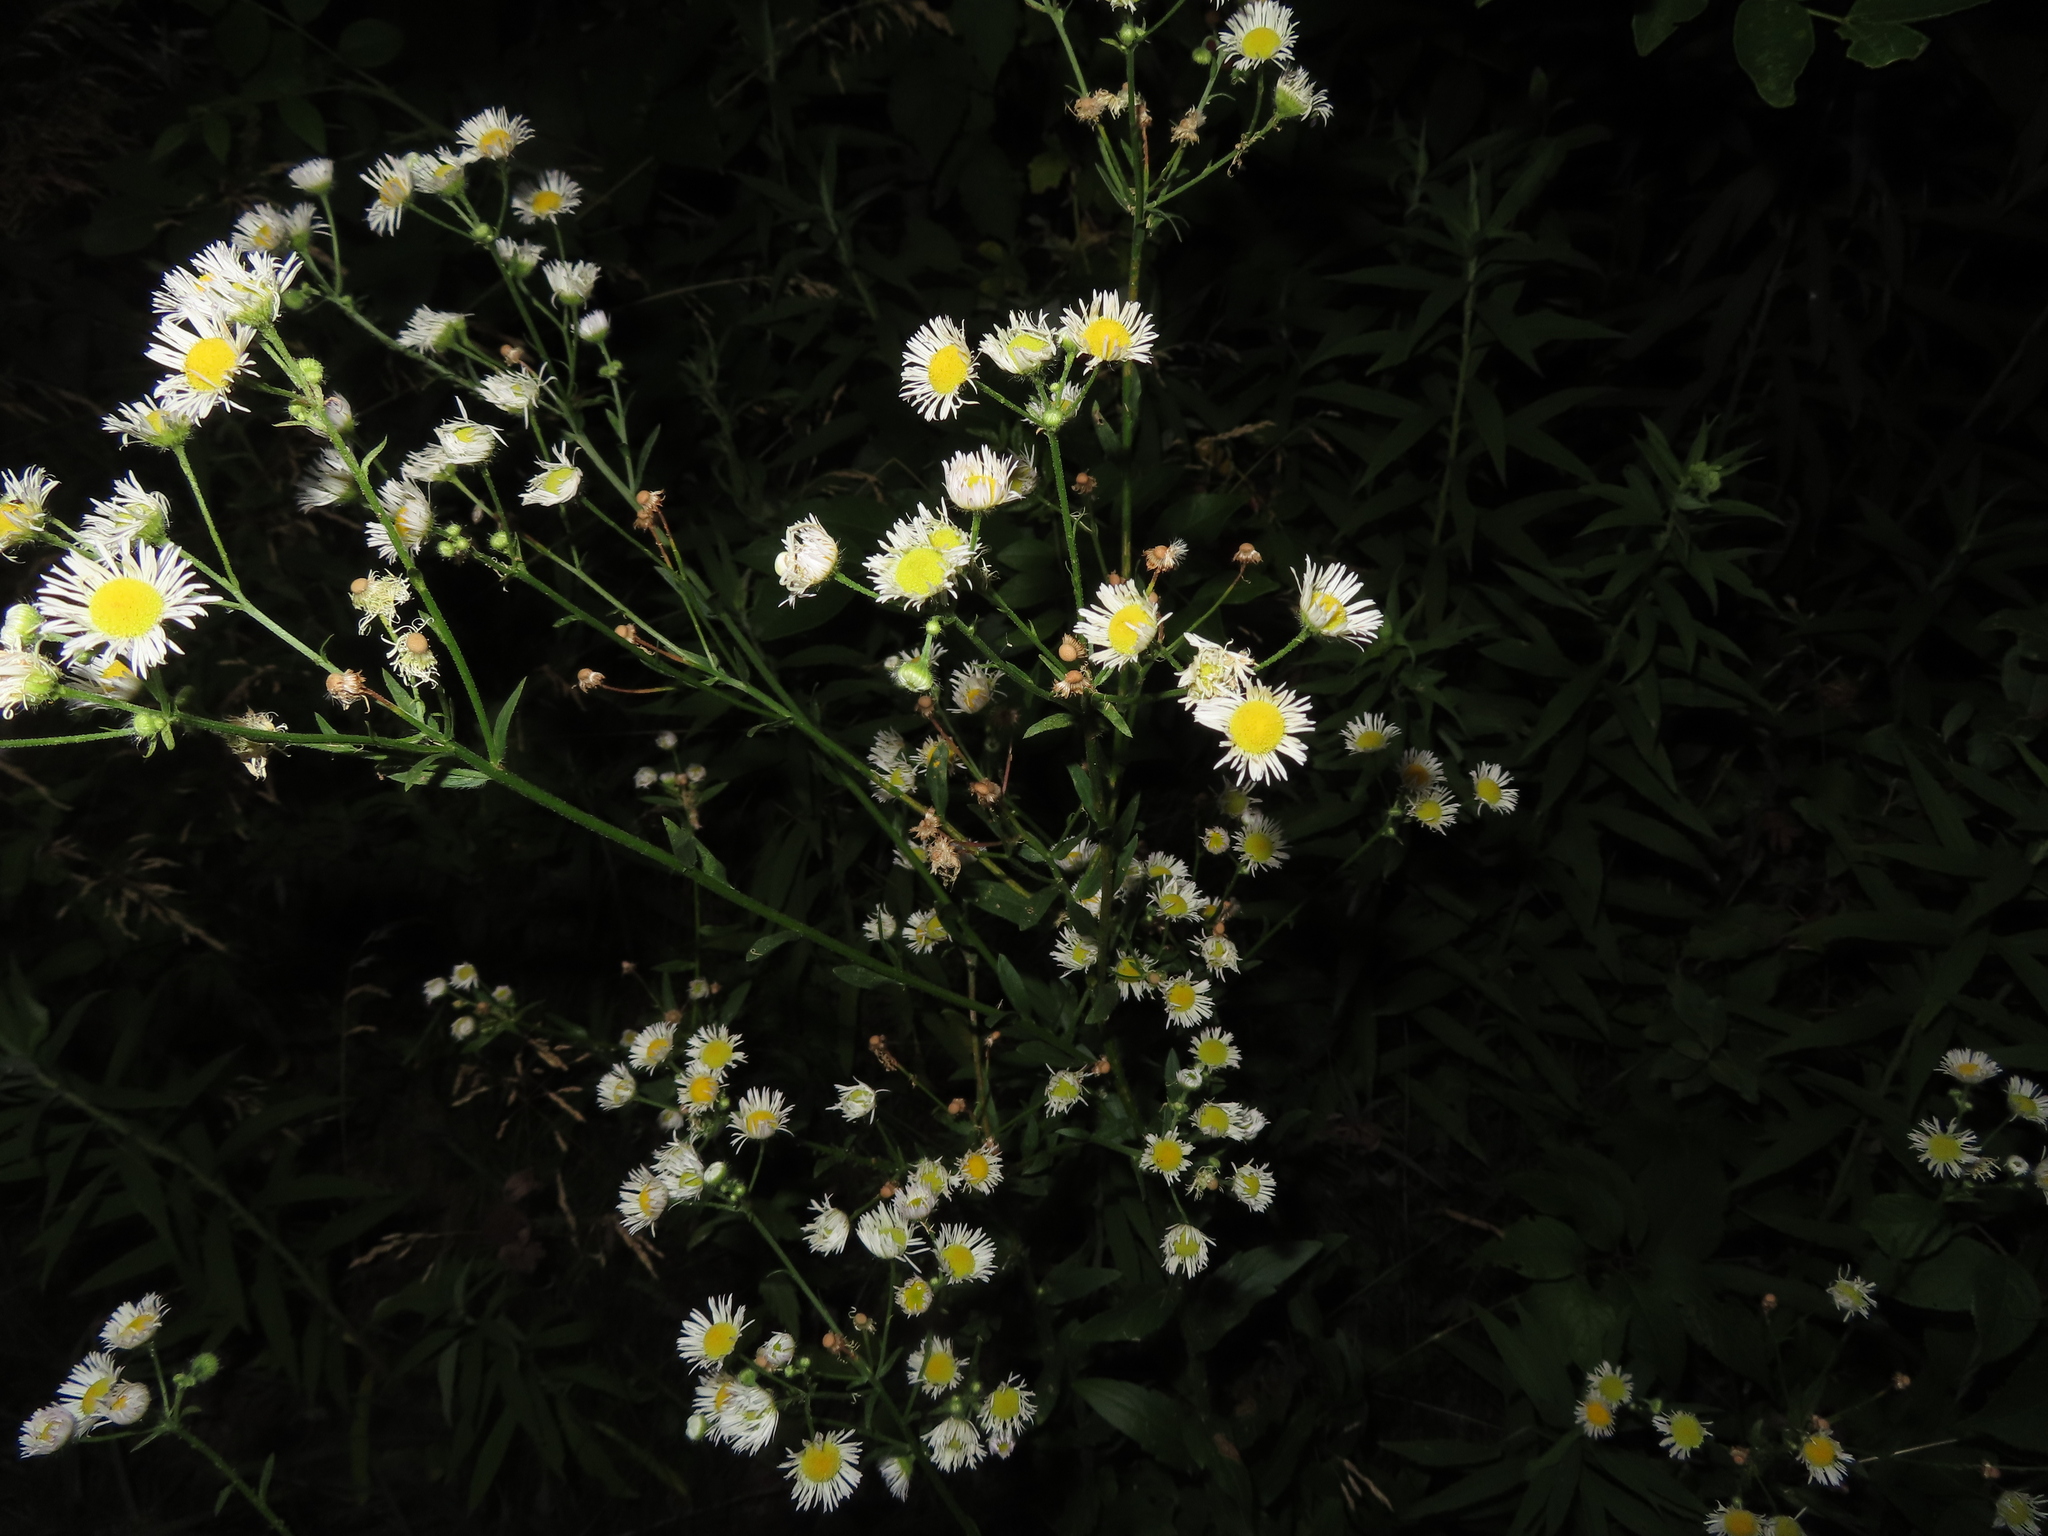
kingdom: Plantae
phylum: Tracheophyta
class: Magnoliopsida
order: Asterales
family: Asteraceae
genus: Erigeron
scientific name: Erigeron strigosus
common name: Common eastern fleabane
